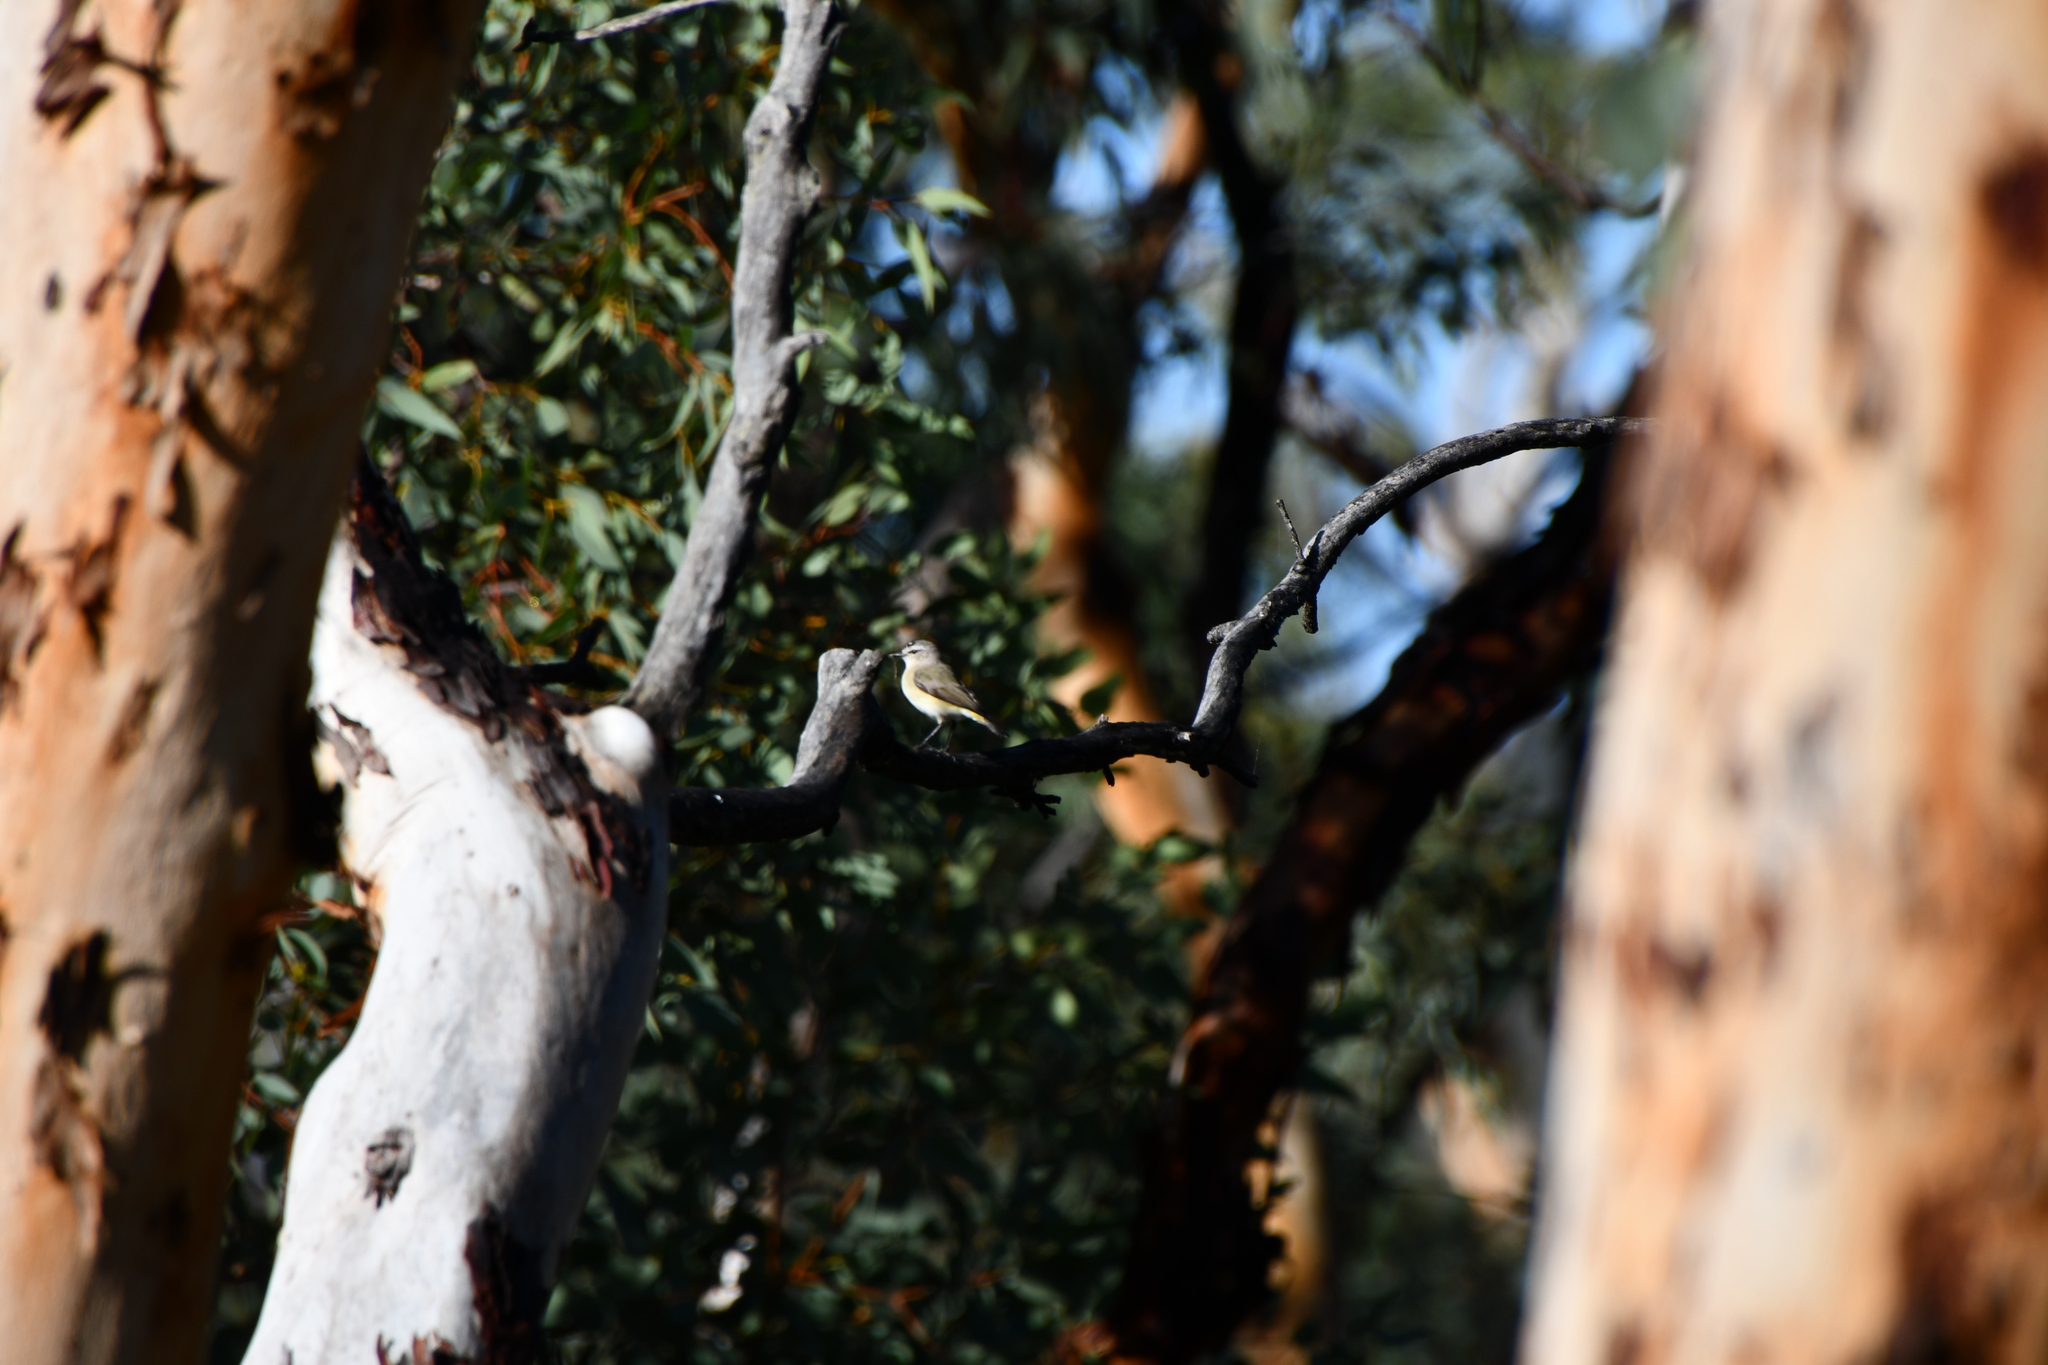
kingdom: Animalia
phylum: Chordata
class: Aves
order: Passeriformes
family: Acanthizidae
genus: Acanthiza
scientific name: Acanthiza chrysorrhoa
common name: Yellow-rumped thornbill
